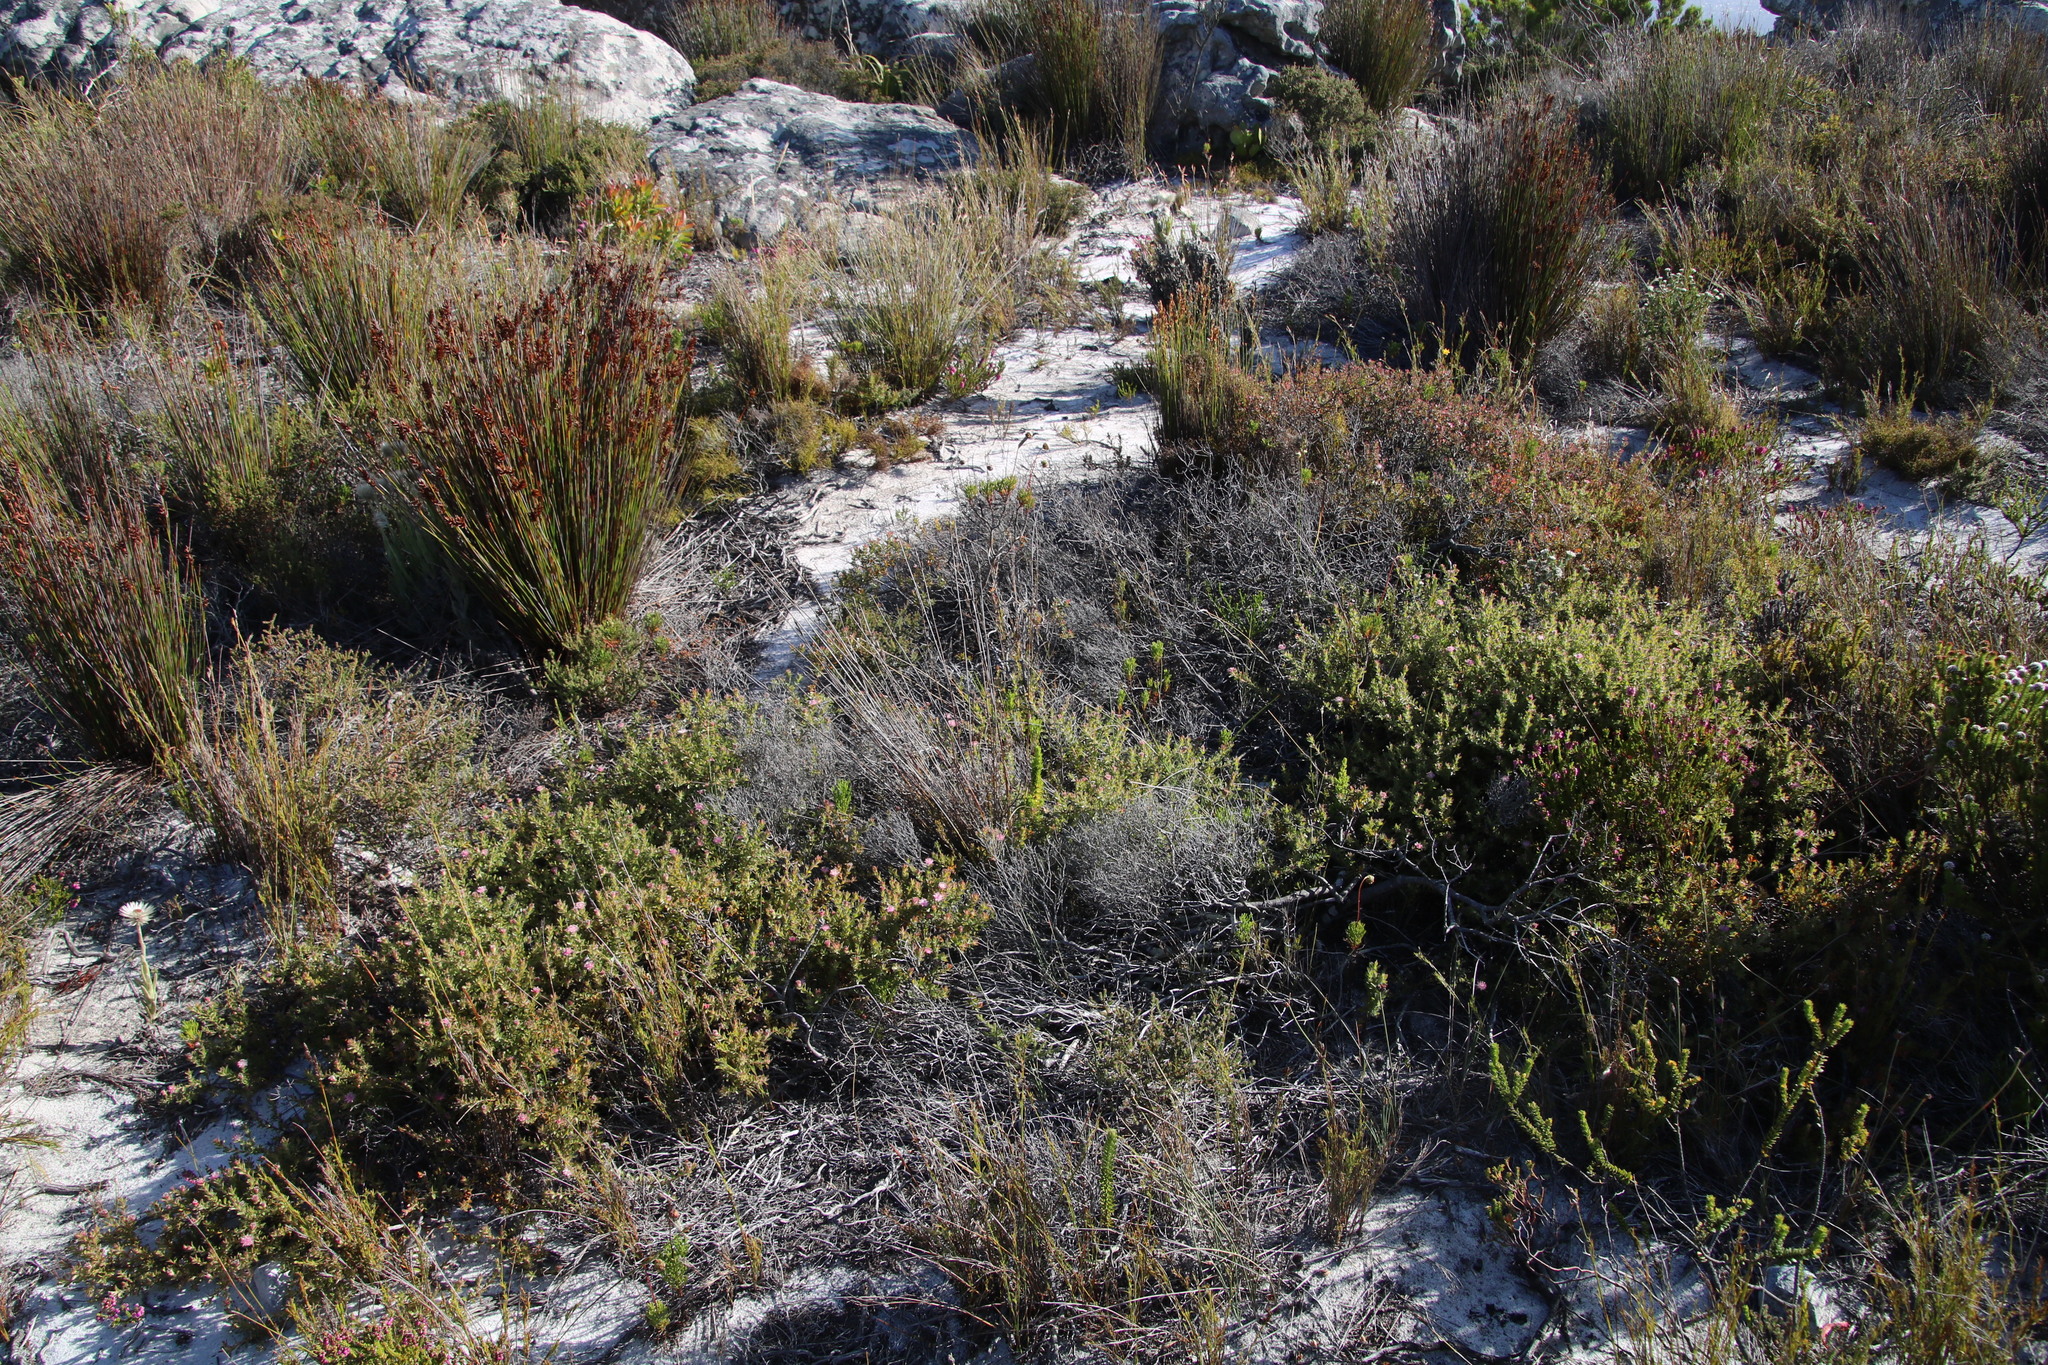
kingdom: Plantae
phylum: Tracheophyta
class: Magnoliopsida
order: Proteales
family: Proteaceae
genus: Diastella
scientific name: Diastella divaricata
